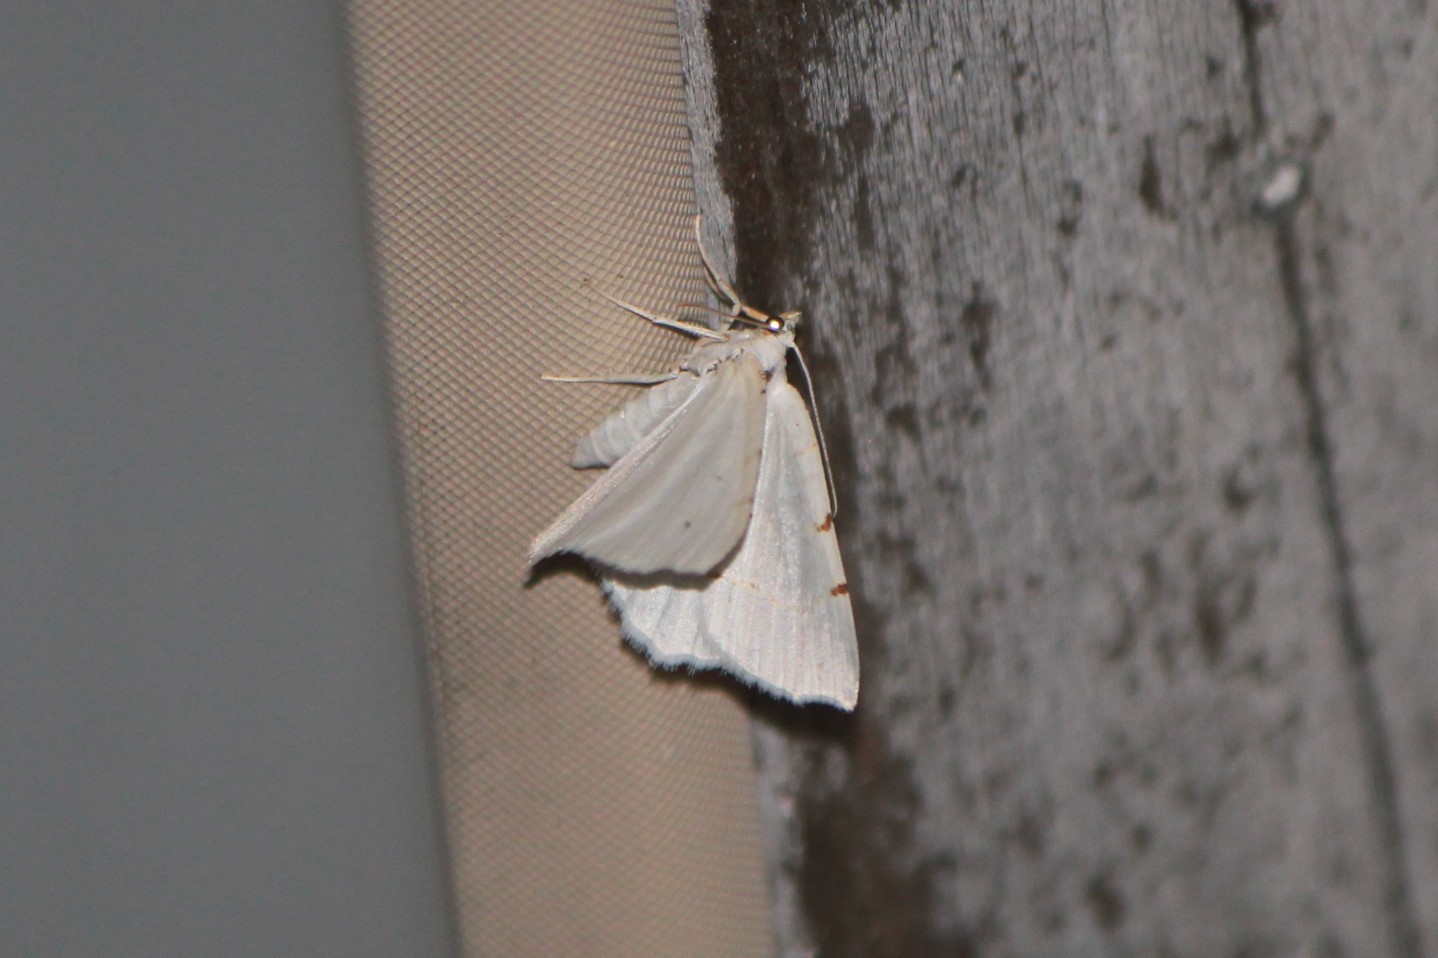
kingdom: Animalia
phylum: Arthropoda
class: Insecta
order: Lepidoptera
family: Geometridae
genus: Macaria
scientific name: Macaria pustularia
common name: Lesser maple spanworm moth
